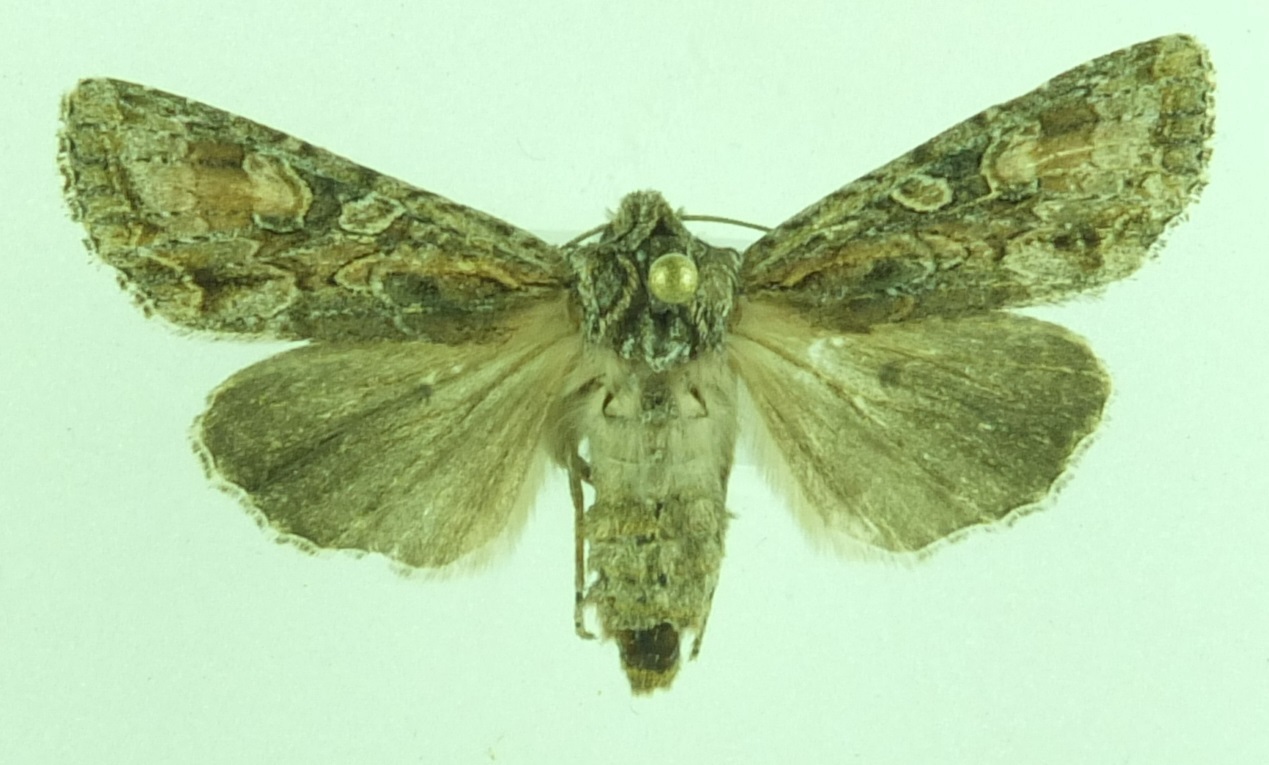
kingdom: Animalia
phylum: Arthropoda
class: Insecta
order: Lepidoptera
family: Noctuidae
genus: Ichneutica
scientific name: Ichneutica mutans
